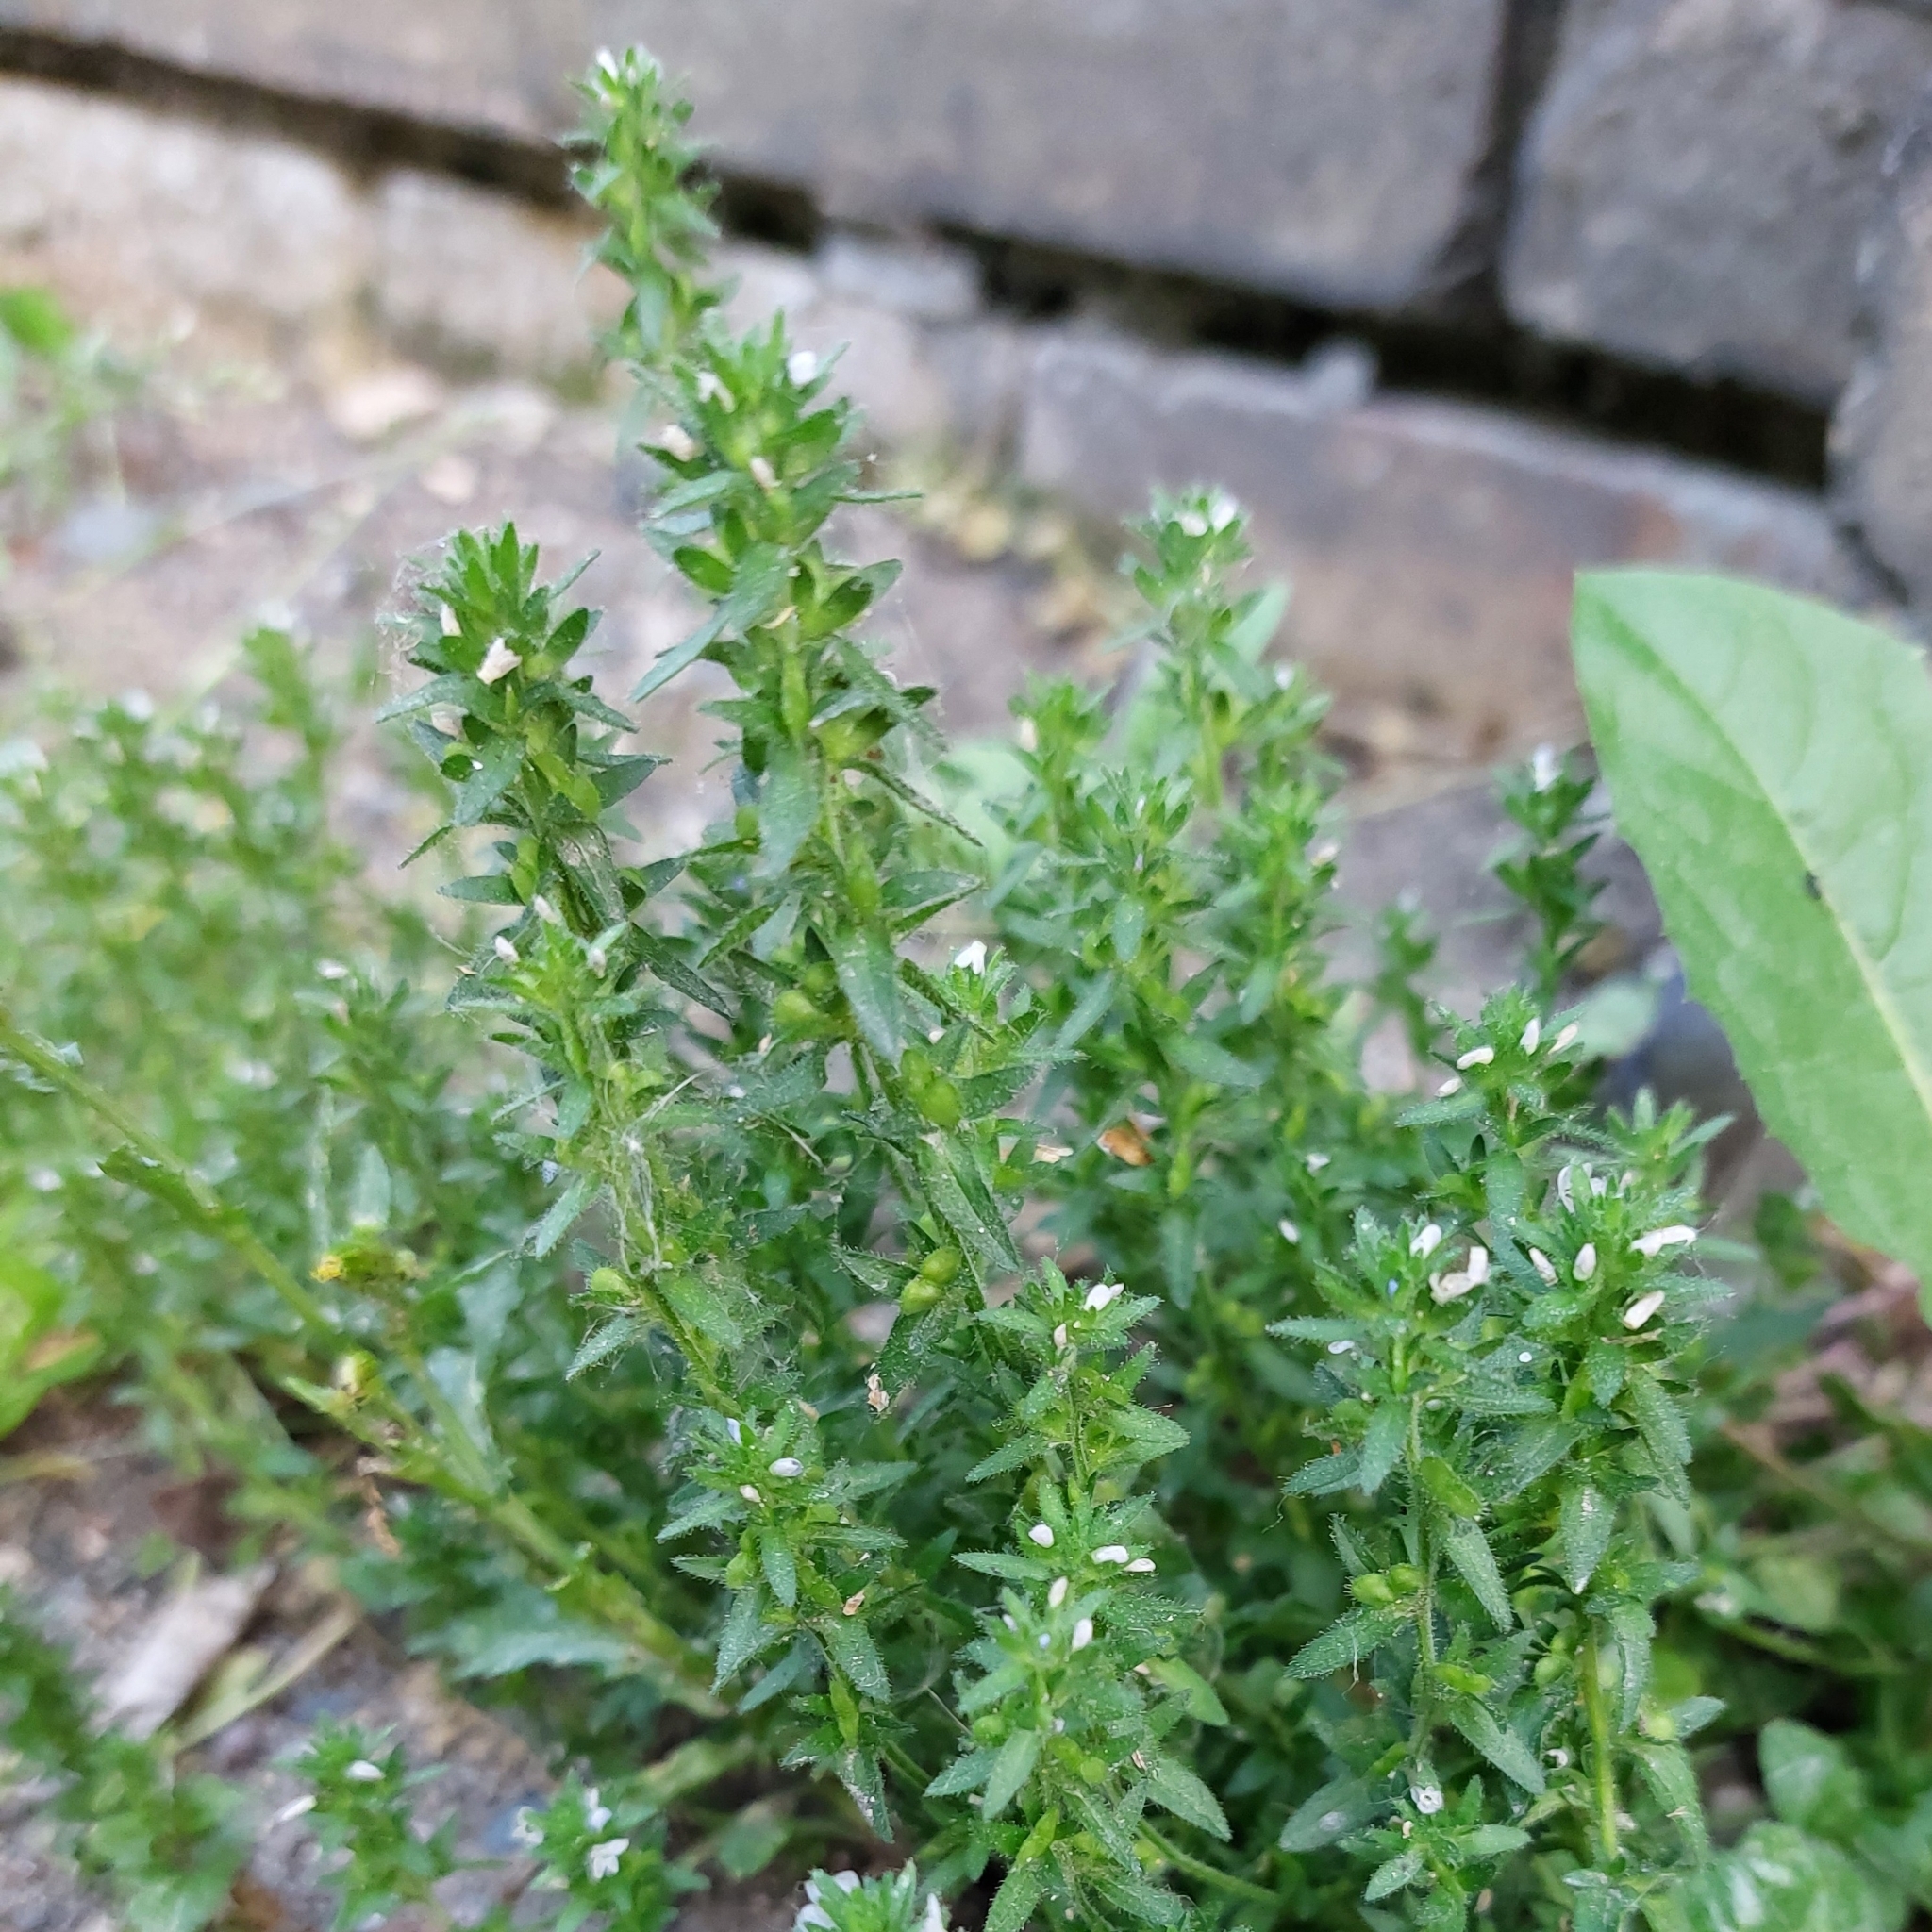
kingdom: Plantae
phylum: Tracheophyta
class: Magnoliopsida
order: Lamiales
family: Plantaginaceae
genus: Veronica
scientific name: Veronica arvensis
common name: Corn speedwell
